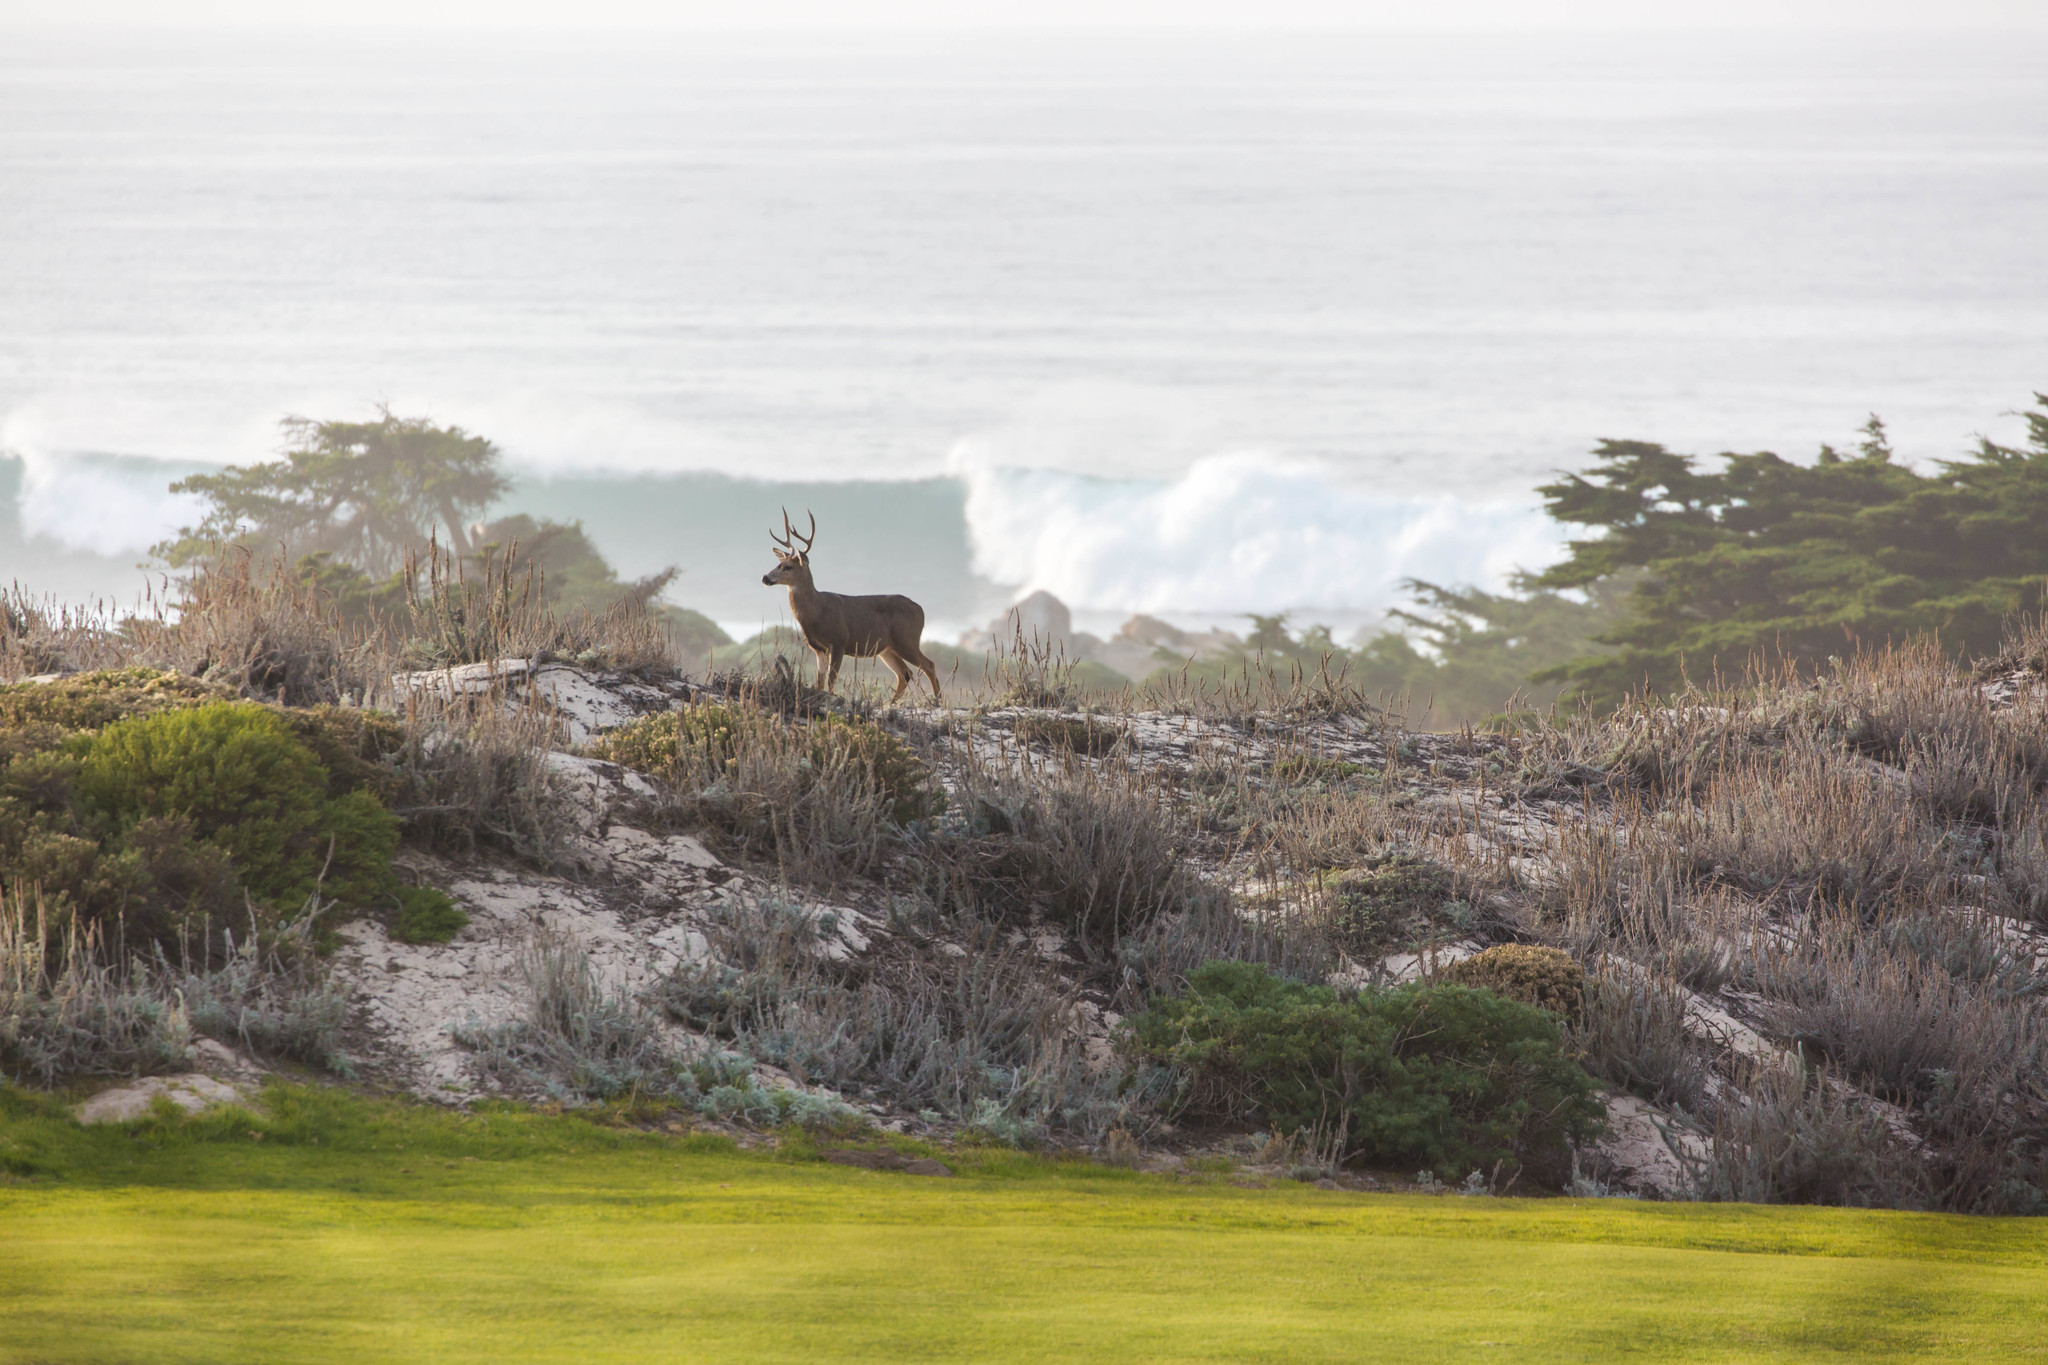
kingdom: Animalia
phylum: Chordata
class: Mammalia
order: Artiodactyla
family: Cervidae
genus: Odocoileus
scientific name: Odocoileus hemionus
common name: Mule deer
